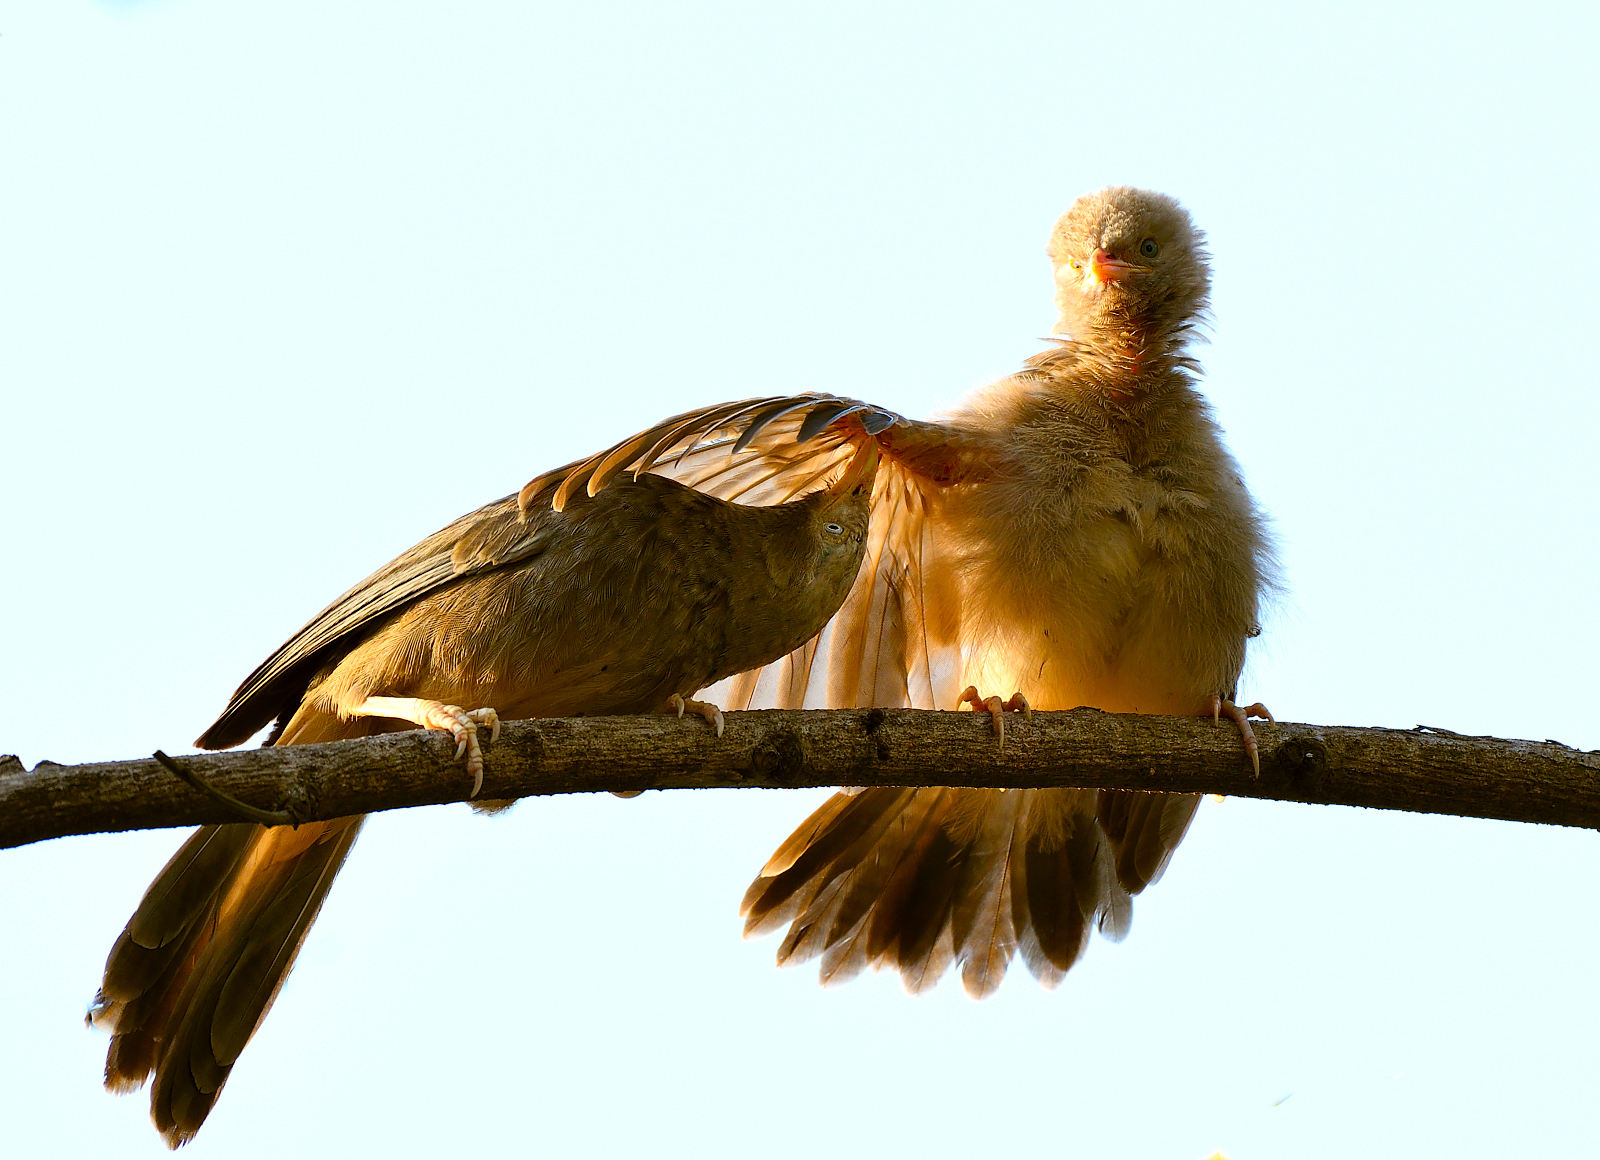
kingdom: Animalia
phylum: Chordata
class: Aves
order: Passeriformes
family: Leiothrichidae
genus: Turdoides
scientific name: Turdoides affinis
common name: Yellow-billed babbler
